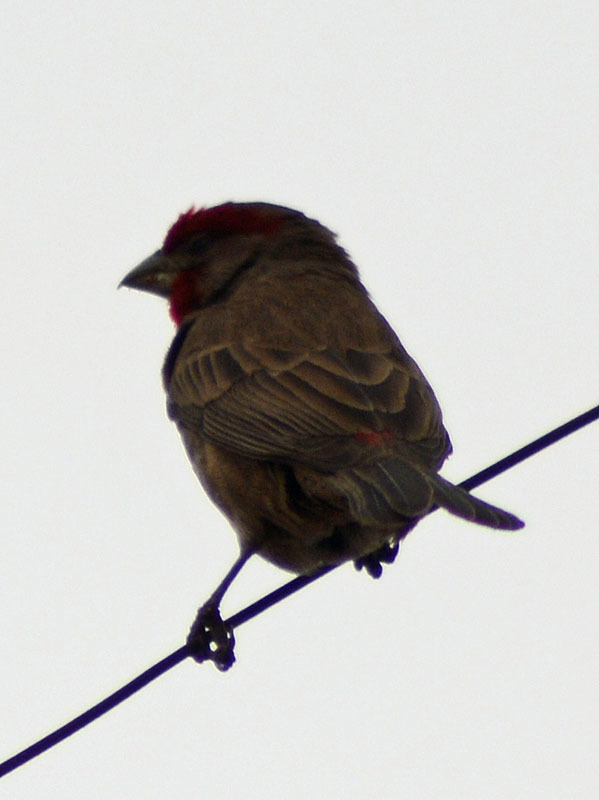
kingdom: Animalia
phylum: Chordata
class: Aves
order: Passeriformes
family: Fringillidae
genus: Haemorhous
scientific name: Haemorhous mexicanus
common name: House finch
